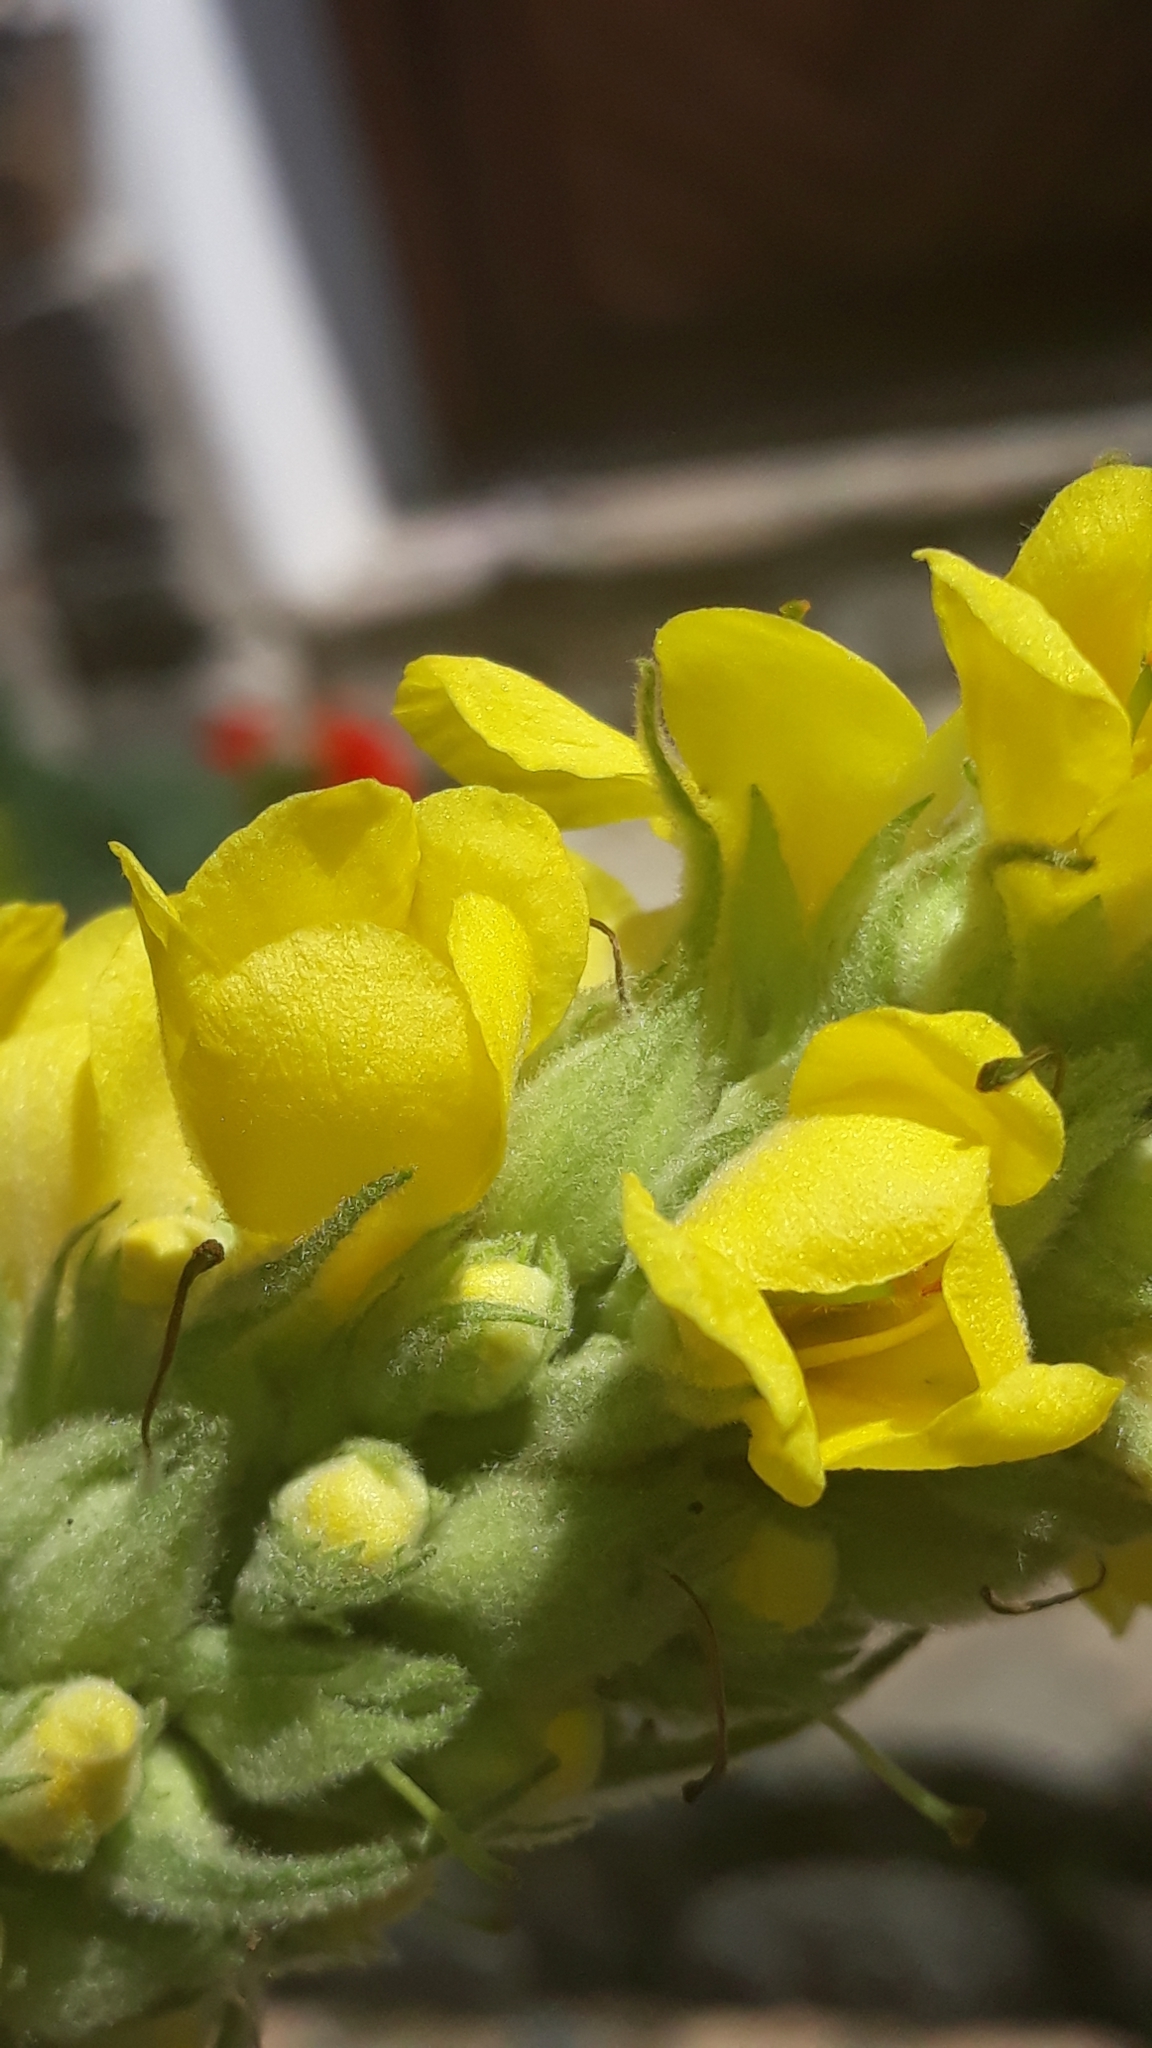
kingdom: Plantae
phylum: Tracheophyta
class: Magnoliopsida
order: Lamiales
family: Scrophulariaceae
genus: Verbascum
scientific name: Verbascum thapsus
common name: Common mullein
